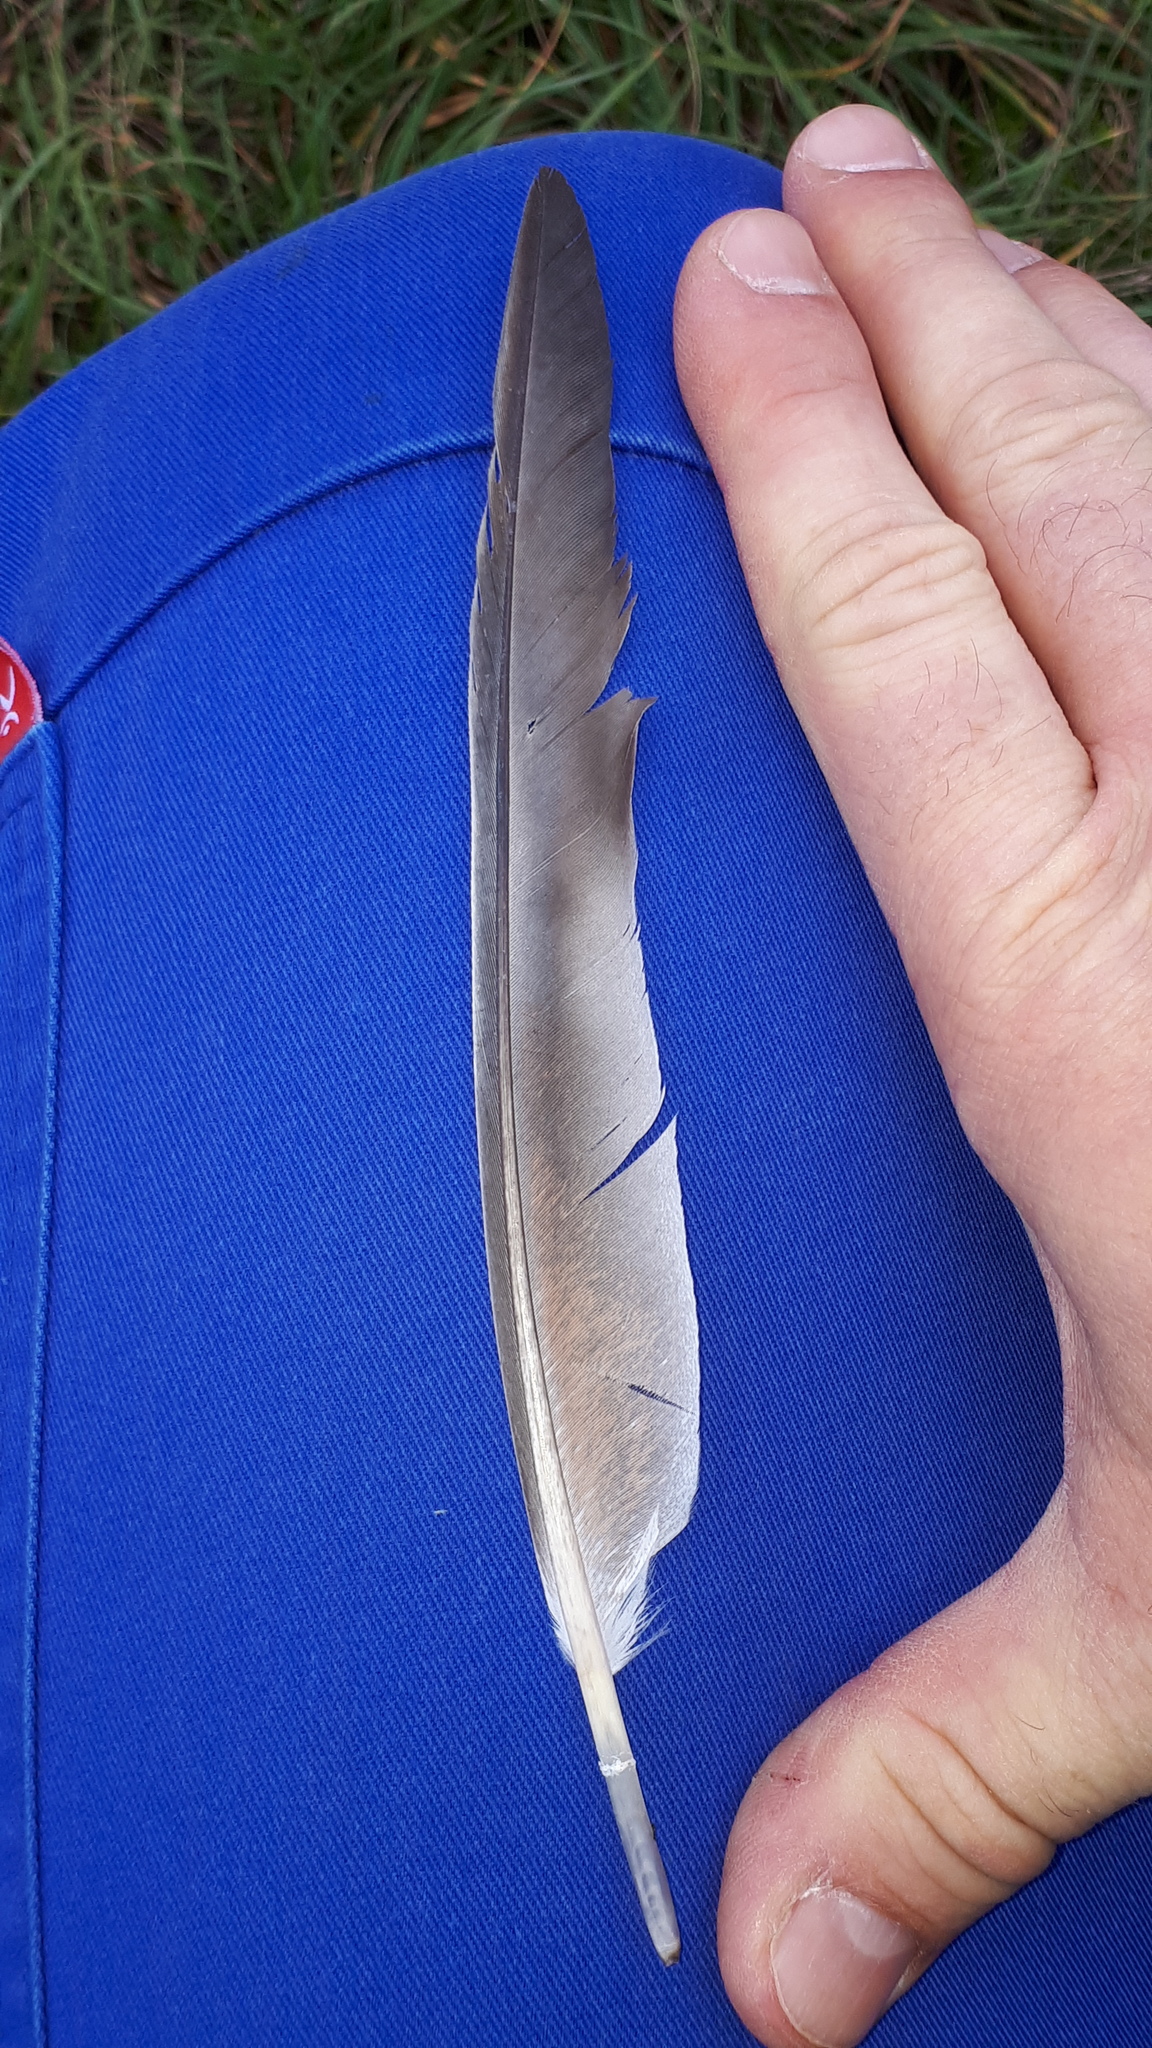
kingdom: Animalia
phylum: Chordata
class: Aves
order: Columbiformes
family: Columbidae
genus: Columba
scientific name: Columba livia
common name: Rock pigeon
